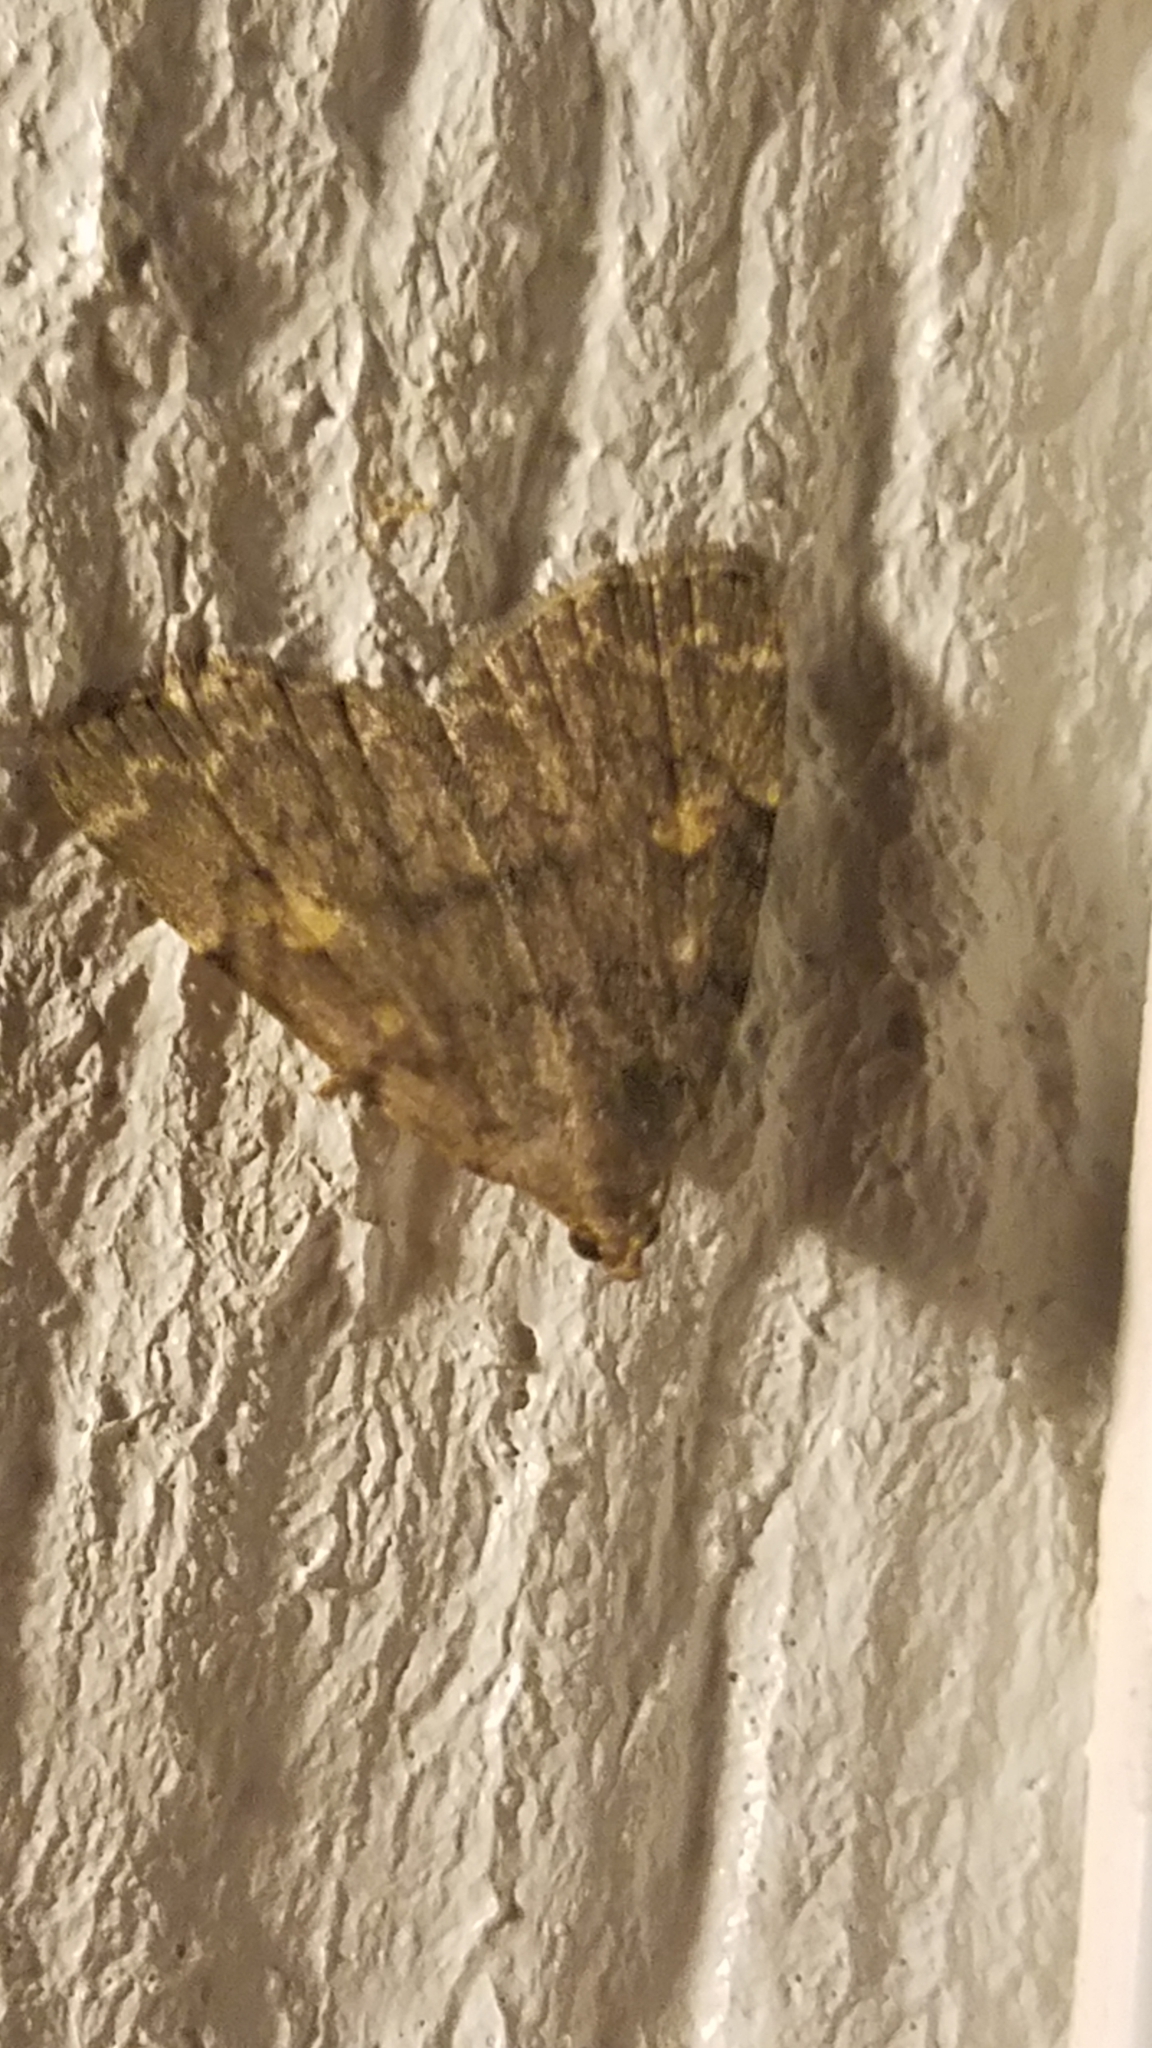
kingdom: Animalia
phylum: Arthropoda
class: Insecta
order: Lepidoptera
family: Erebidae
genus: Idia
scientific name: Idia aemula
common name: Common idia moth
